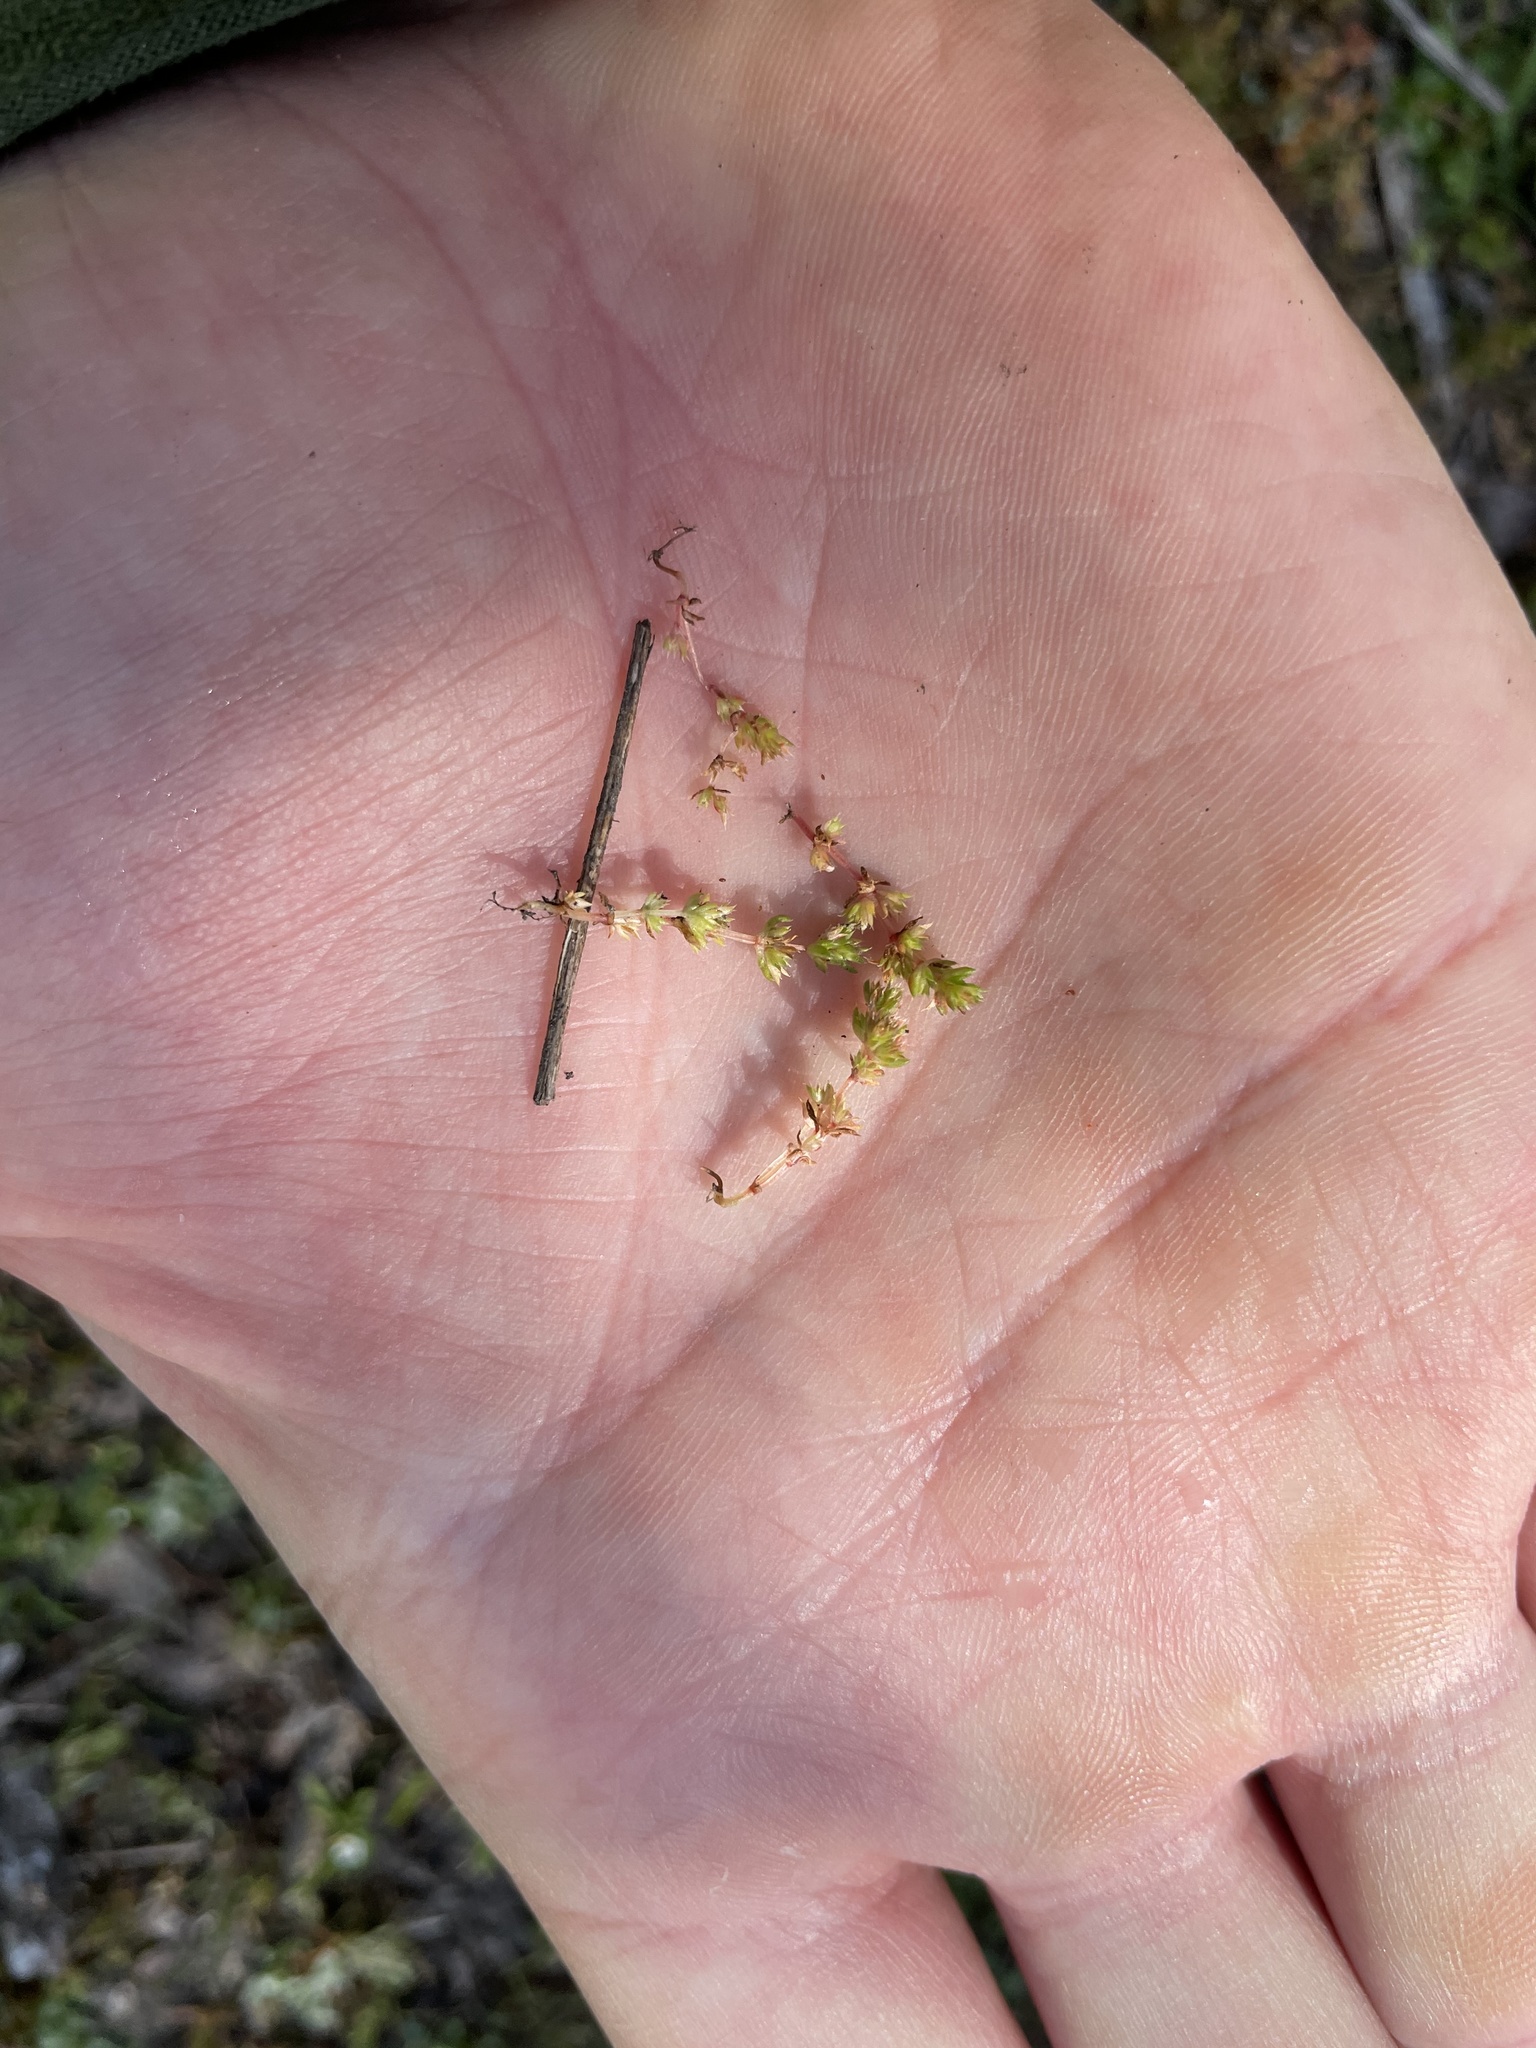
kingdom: Plantae
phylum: Tracheophyta
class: Magnoliopsida
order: Saxifragales
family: Crassulaceae
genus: Crassula
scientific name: Crassula tillaea
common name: Mossy stonecrop
